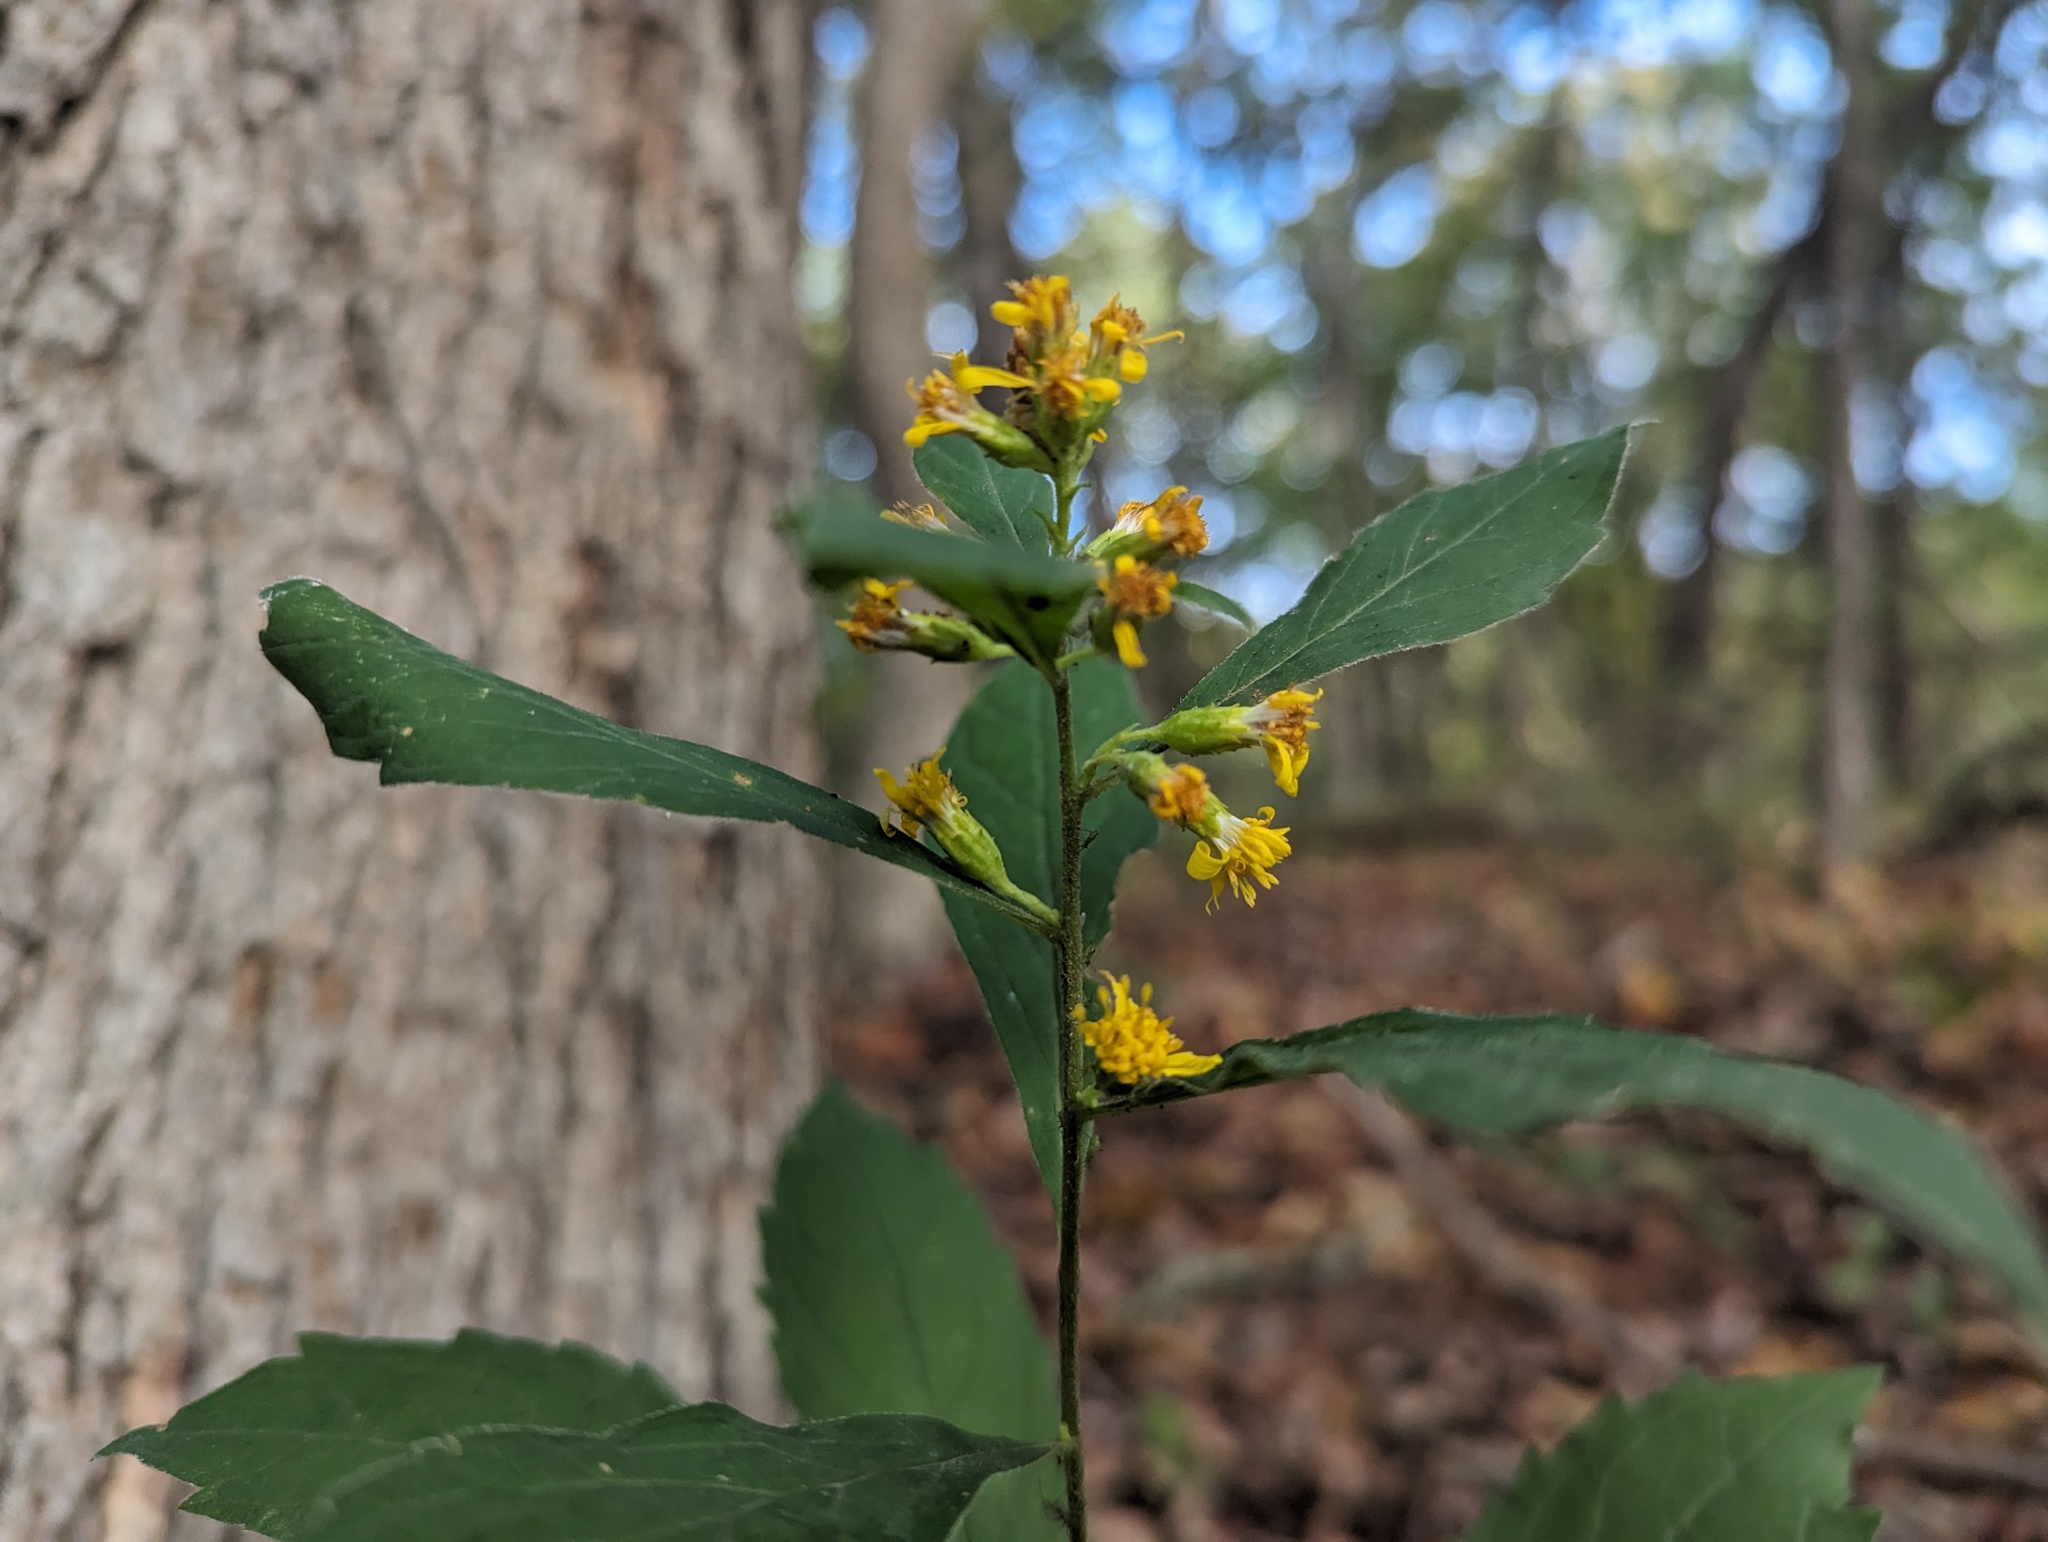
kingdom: Plantae
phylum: Tracheophyta
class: Magnoliopsida
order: Asterales
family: Asteraceae
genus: Solidago
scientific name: Solidago buckleyi
